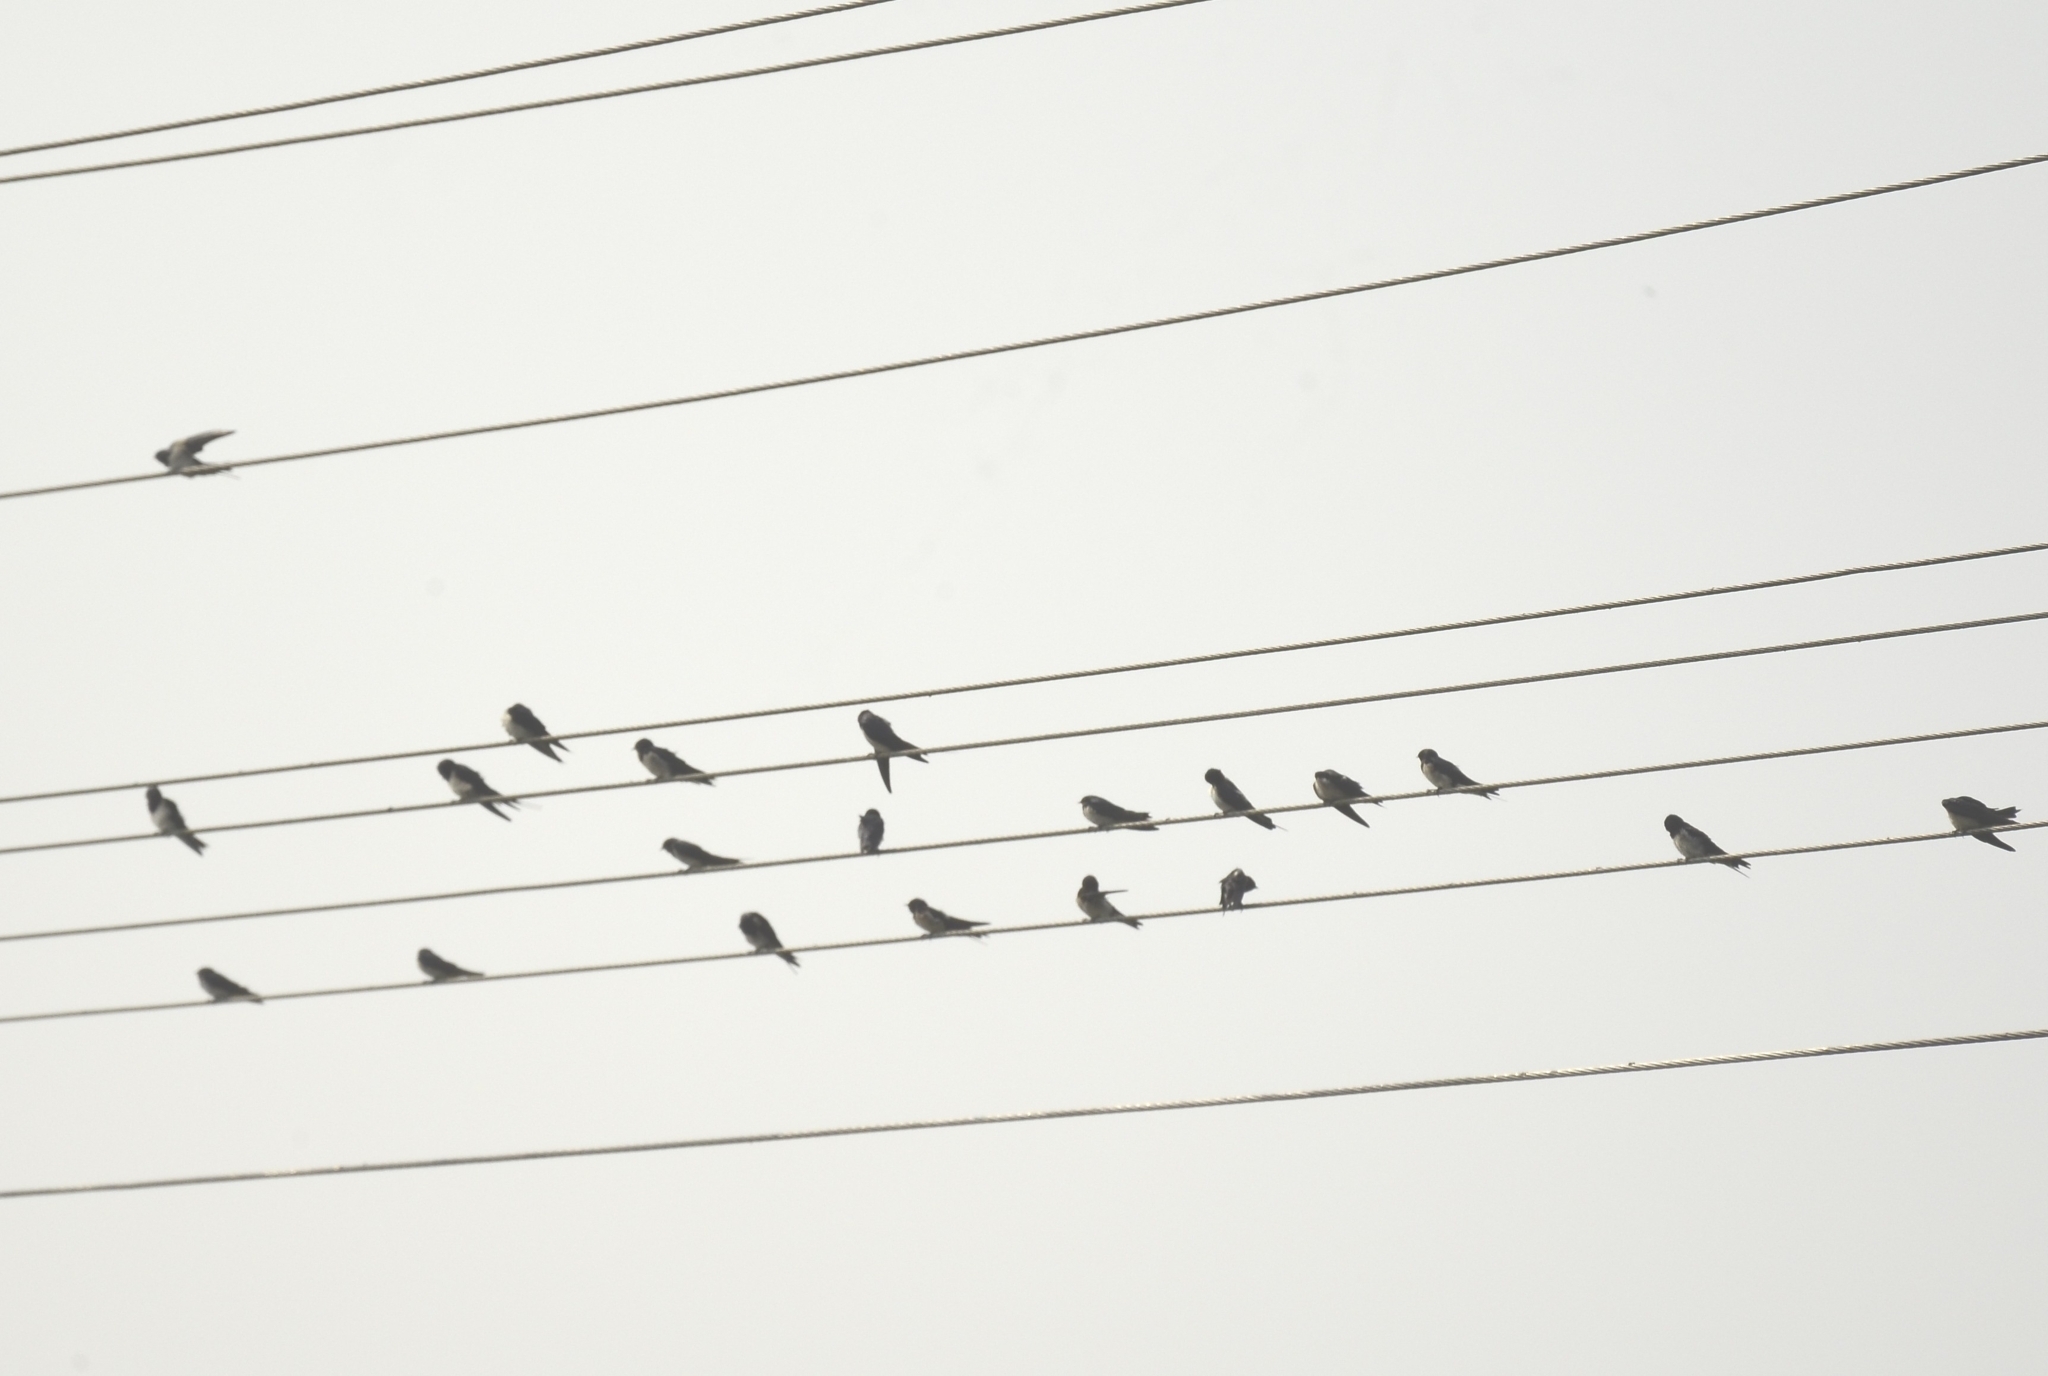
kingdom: Animalia
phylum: Chordata
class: Aves
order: Passeriformes
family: Hirundinidae
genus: Hirundo
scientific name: Hirundo rustica
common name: Barn swallow
